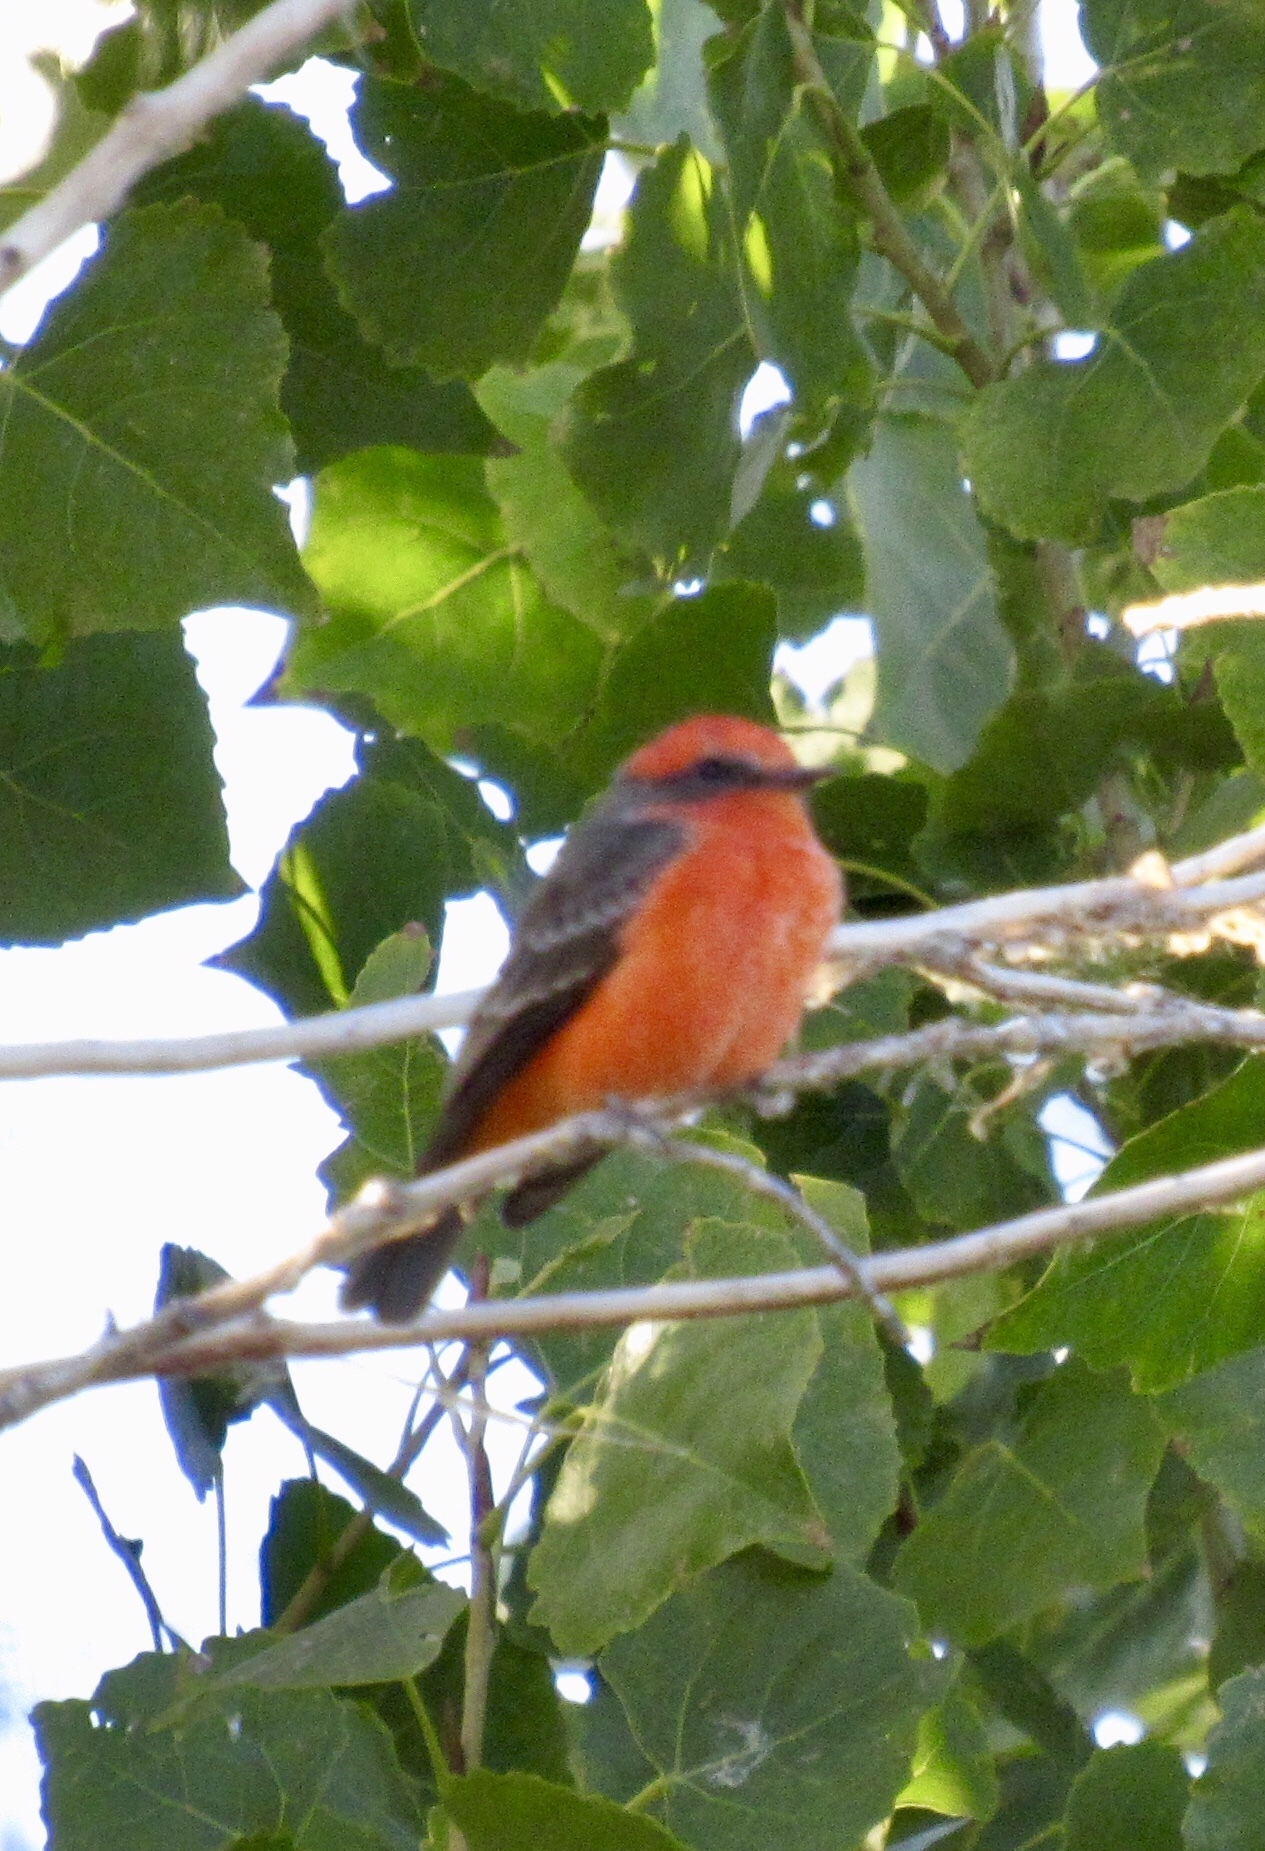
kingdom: Animalia
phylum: Chordata
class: Aves
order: Passeriformes
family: Tyrannidae
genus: Pyrocephalus
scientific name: Pyrocephalus rubinus
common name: Vermilion flycatcher
